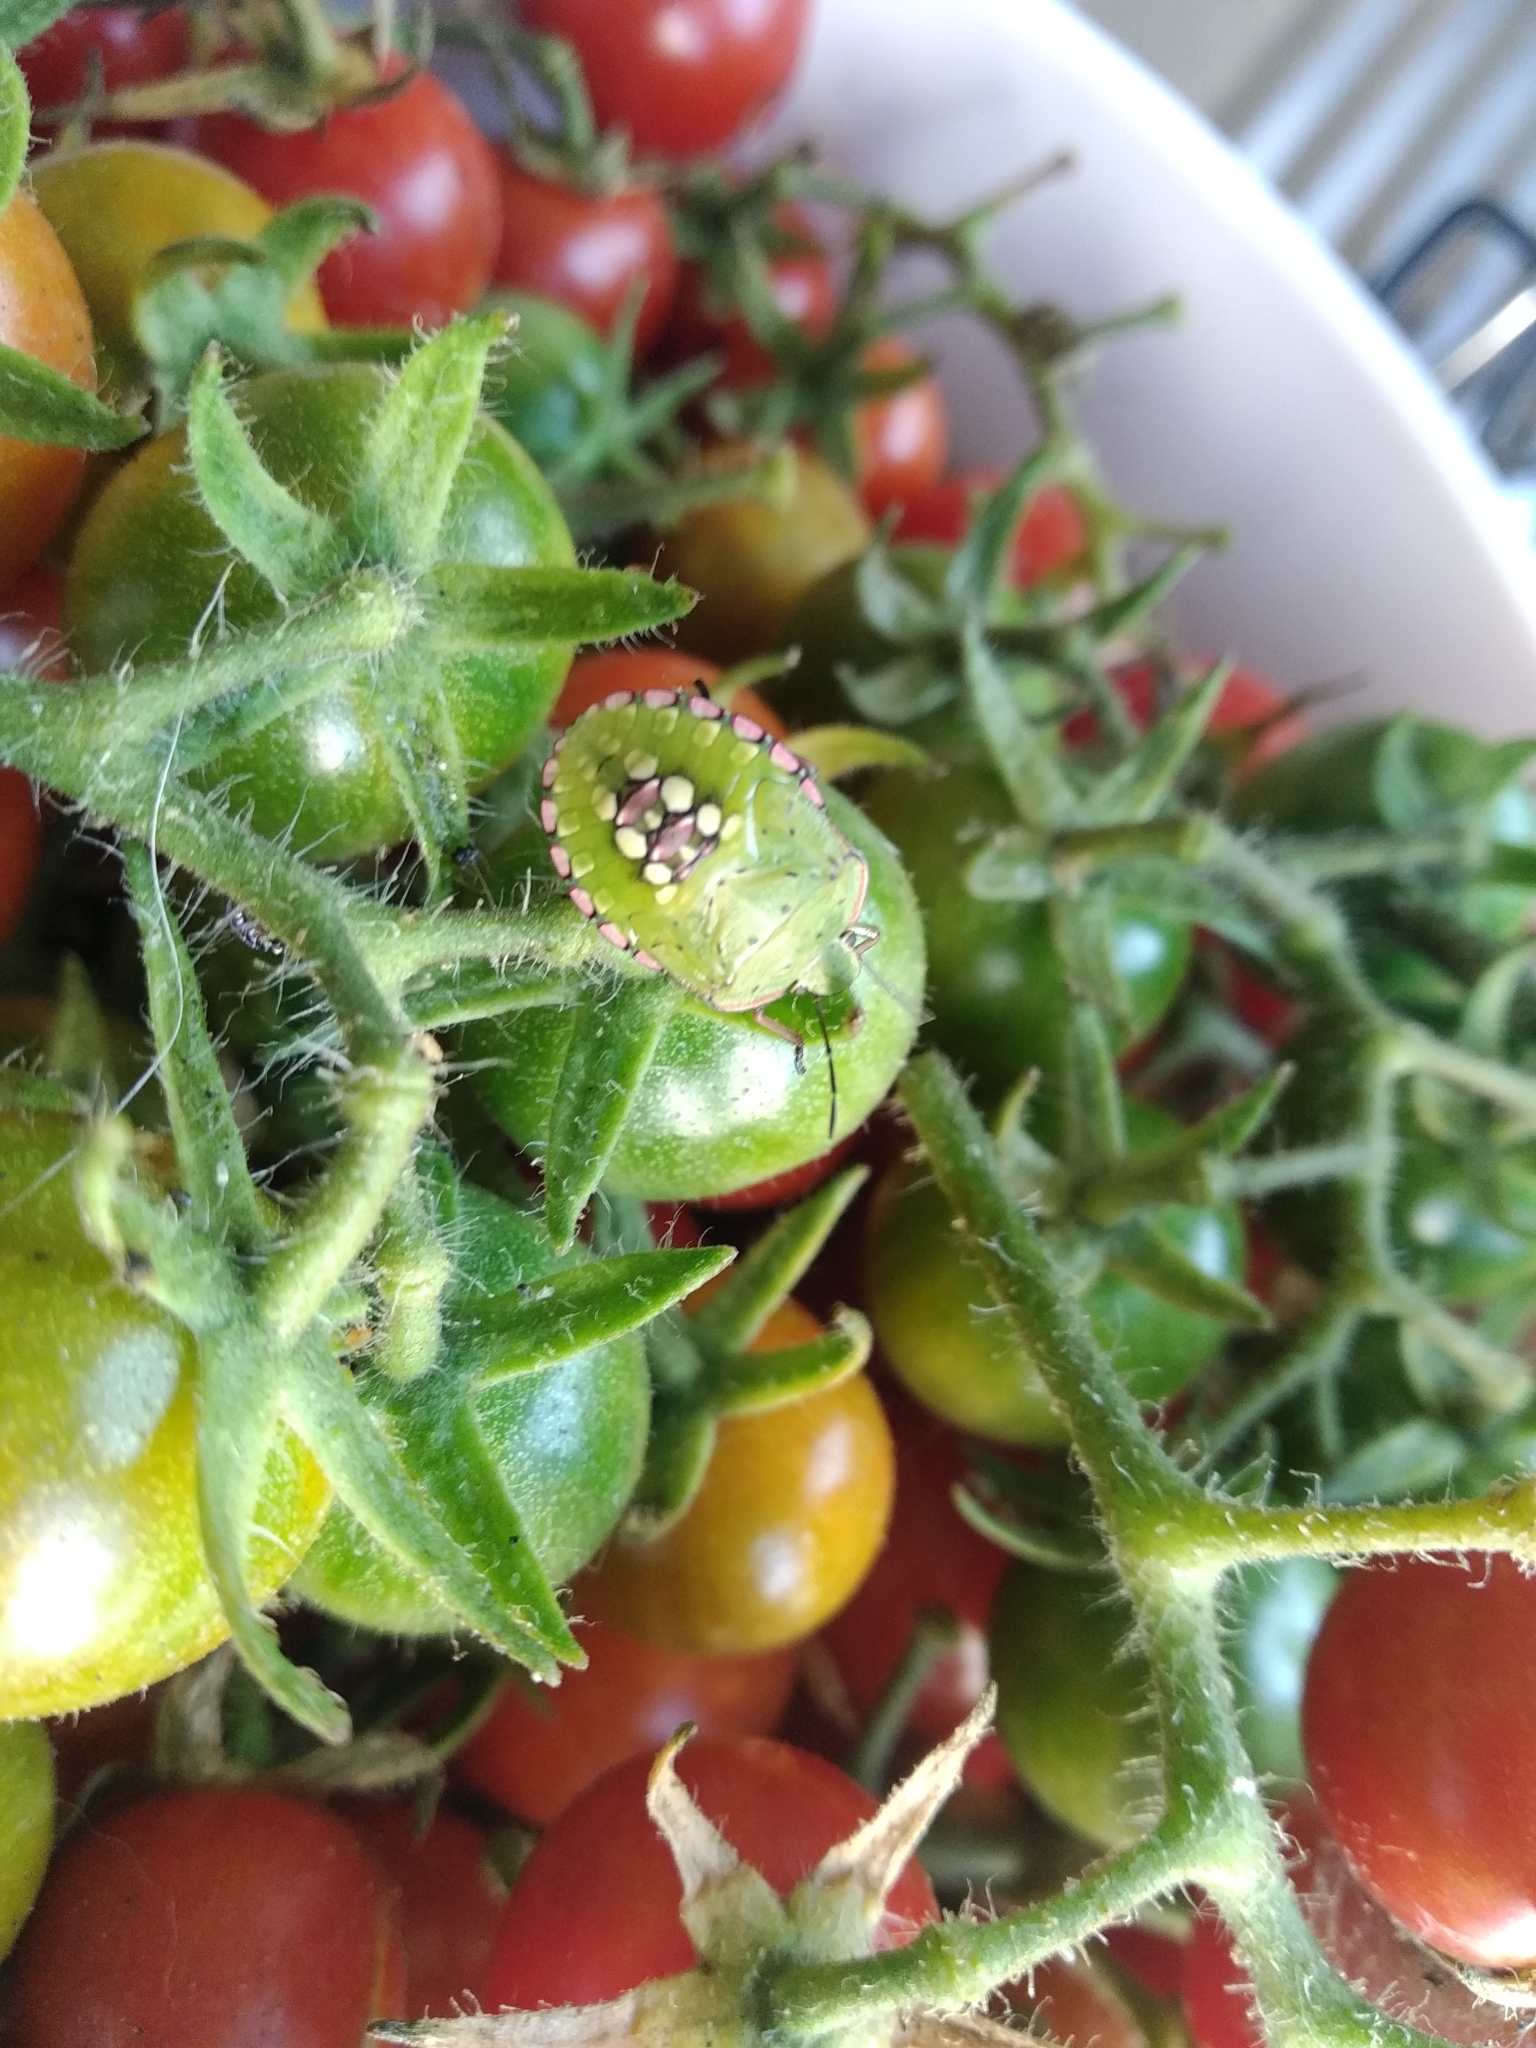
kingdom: Animalia
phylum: Arthropoda
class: Insecta
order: Hemiptera
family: Pentatomidae
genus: Nezara
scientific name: Nezara viridula
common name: Southern green stink bug
